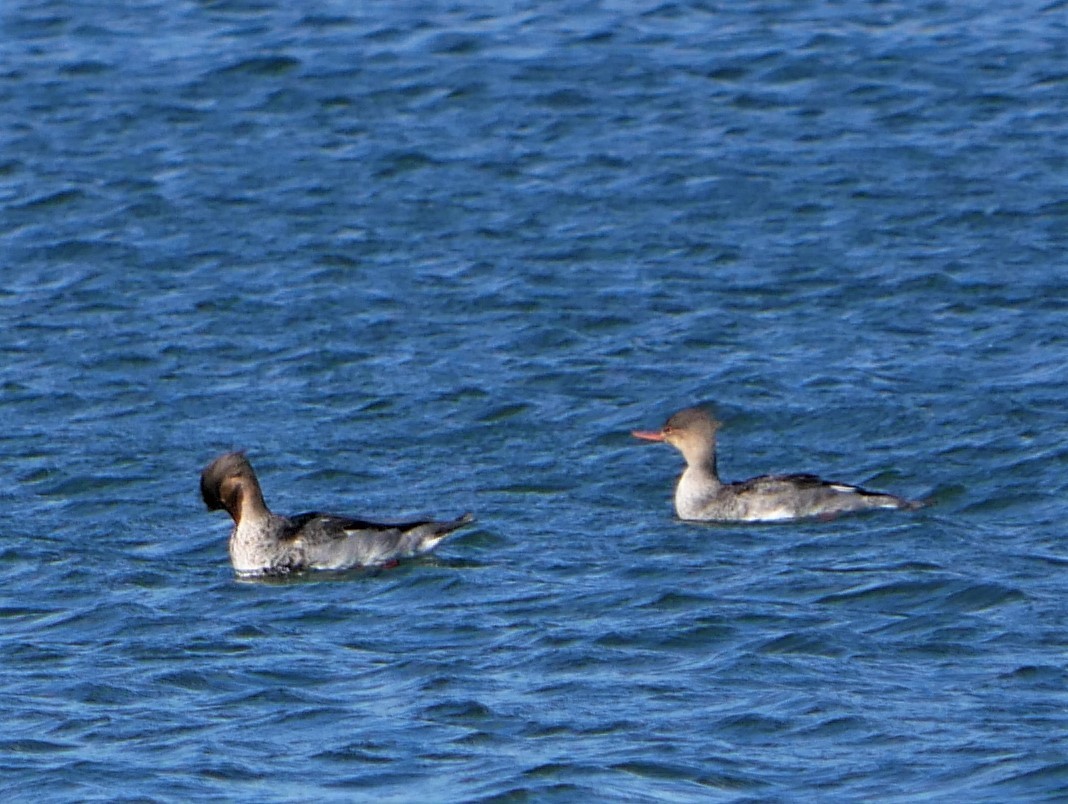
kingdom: Animalia
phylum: Chordata
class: Aves
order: Anseriformes
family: Anatidae
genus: Mergus
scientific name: Mergus serrator
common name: Red-breasted merganser
